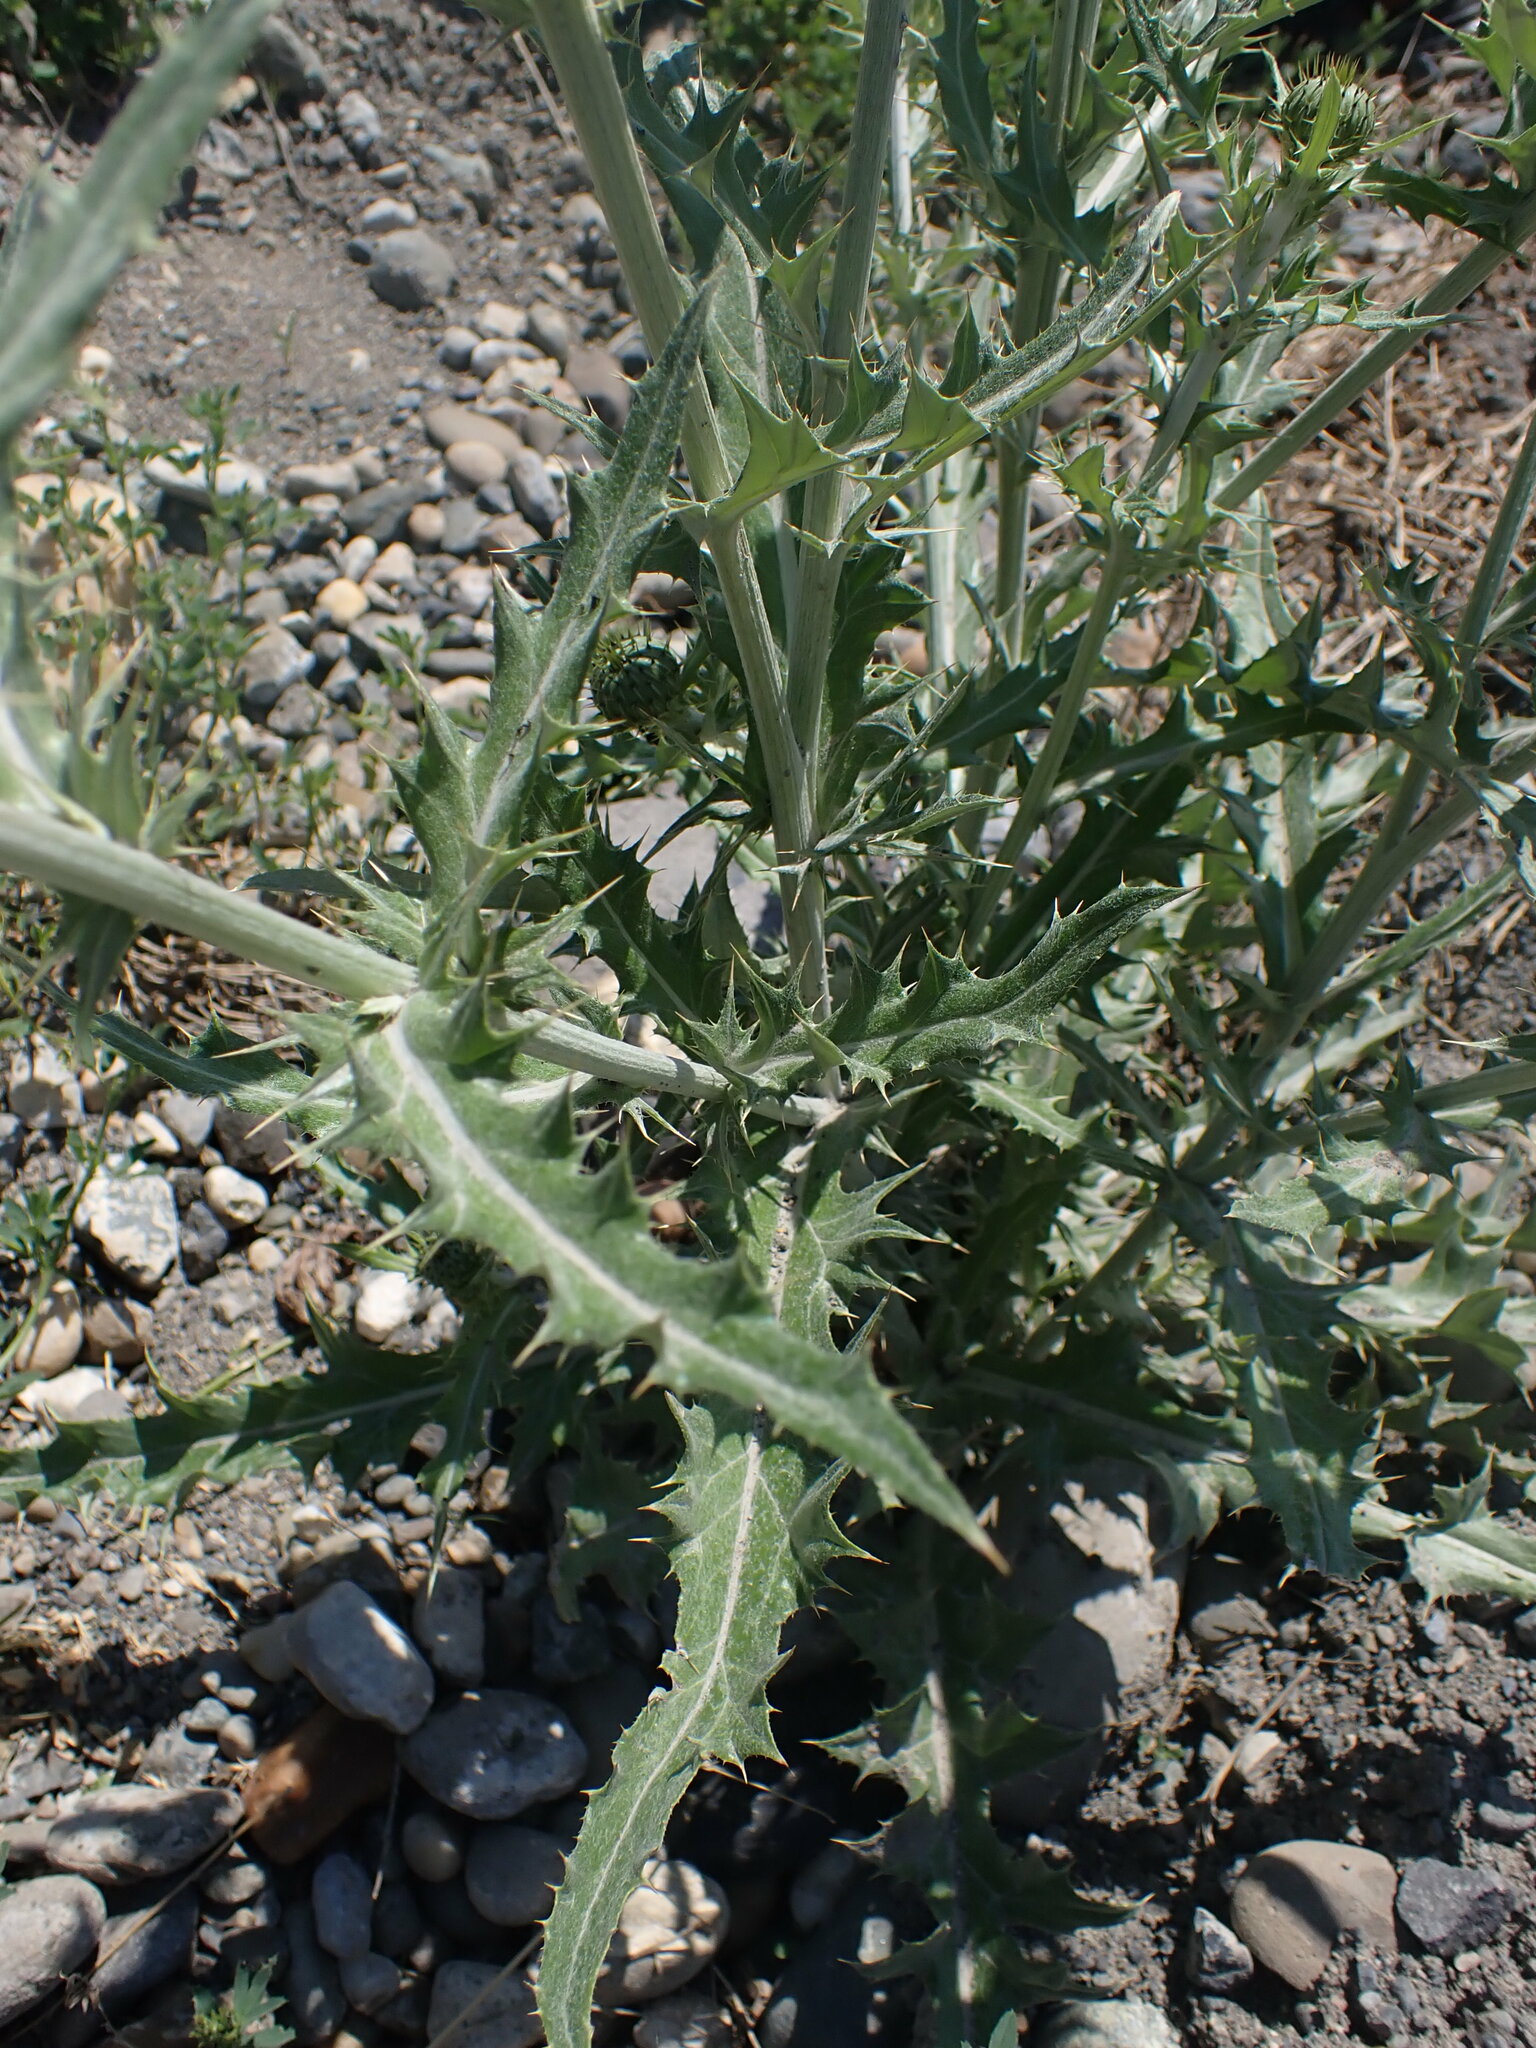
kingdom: Plantae
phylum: Tracheophyta
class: Magnoliopsida
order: Asterales
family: Asteraceae
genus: Cirsium
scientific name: Cirsium undulatum
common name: Pasture thistle
